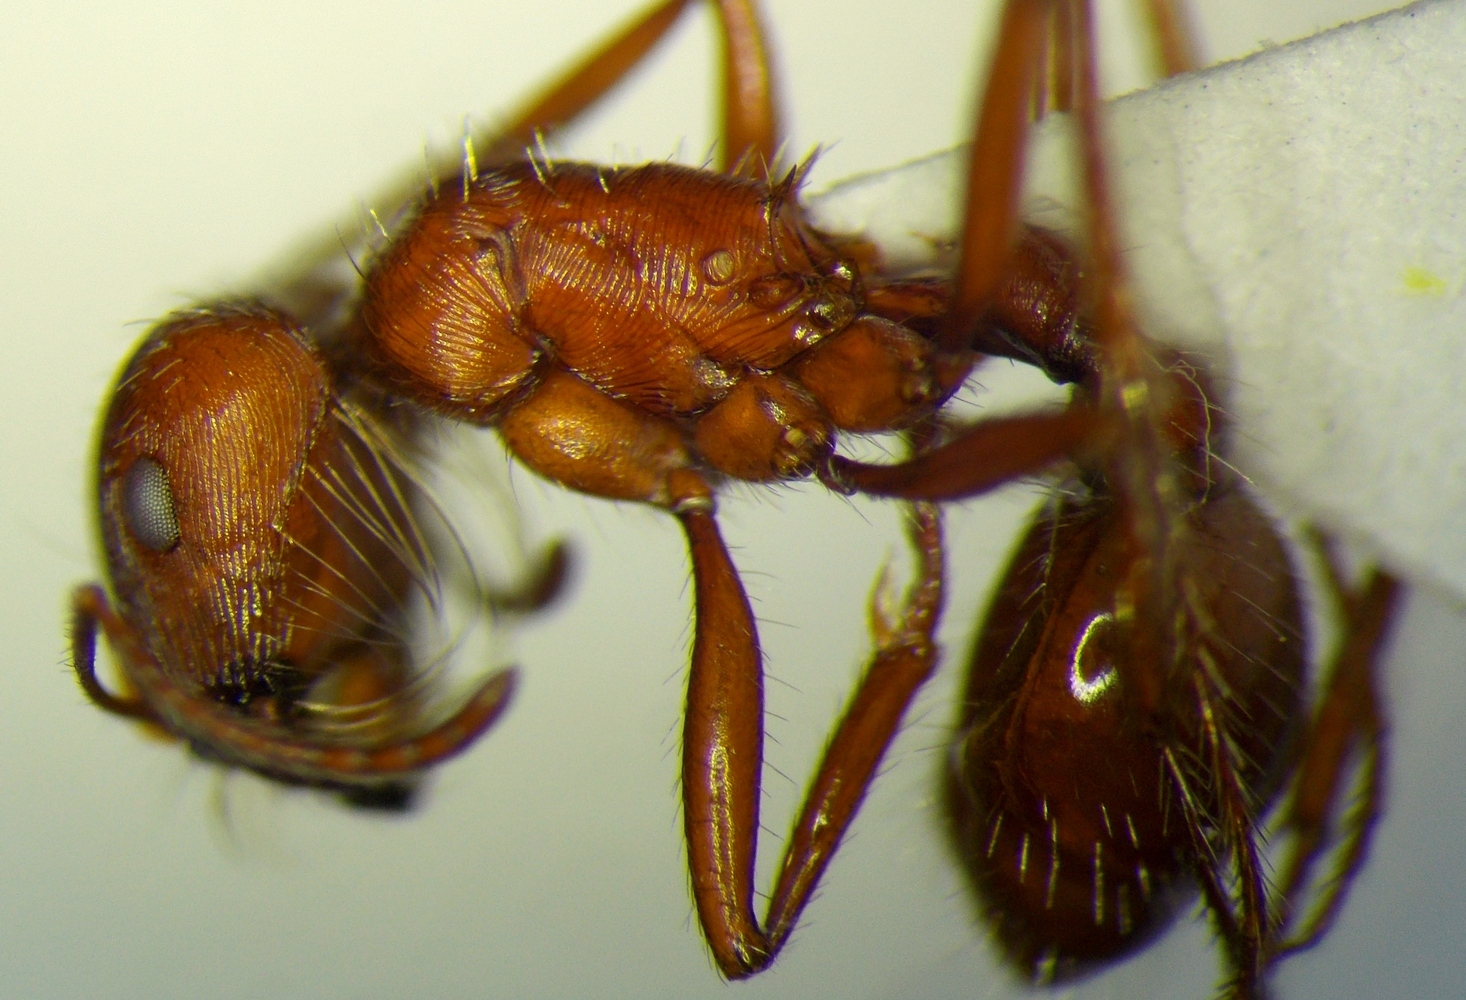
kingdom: Animalia
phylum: Arthropoda
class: Insecta
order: Hymenoptera
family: Formicidae
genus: Pogonomyrmex
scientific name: Pogonomyrmex subnitidus
